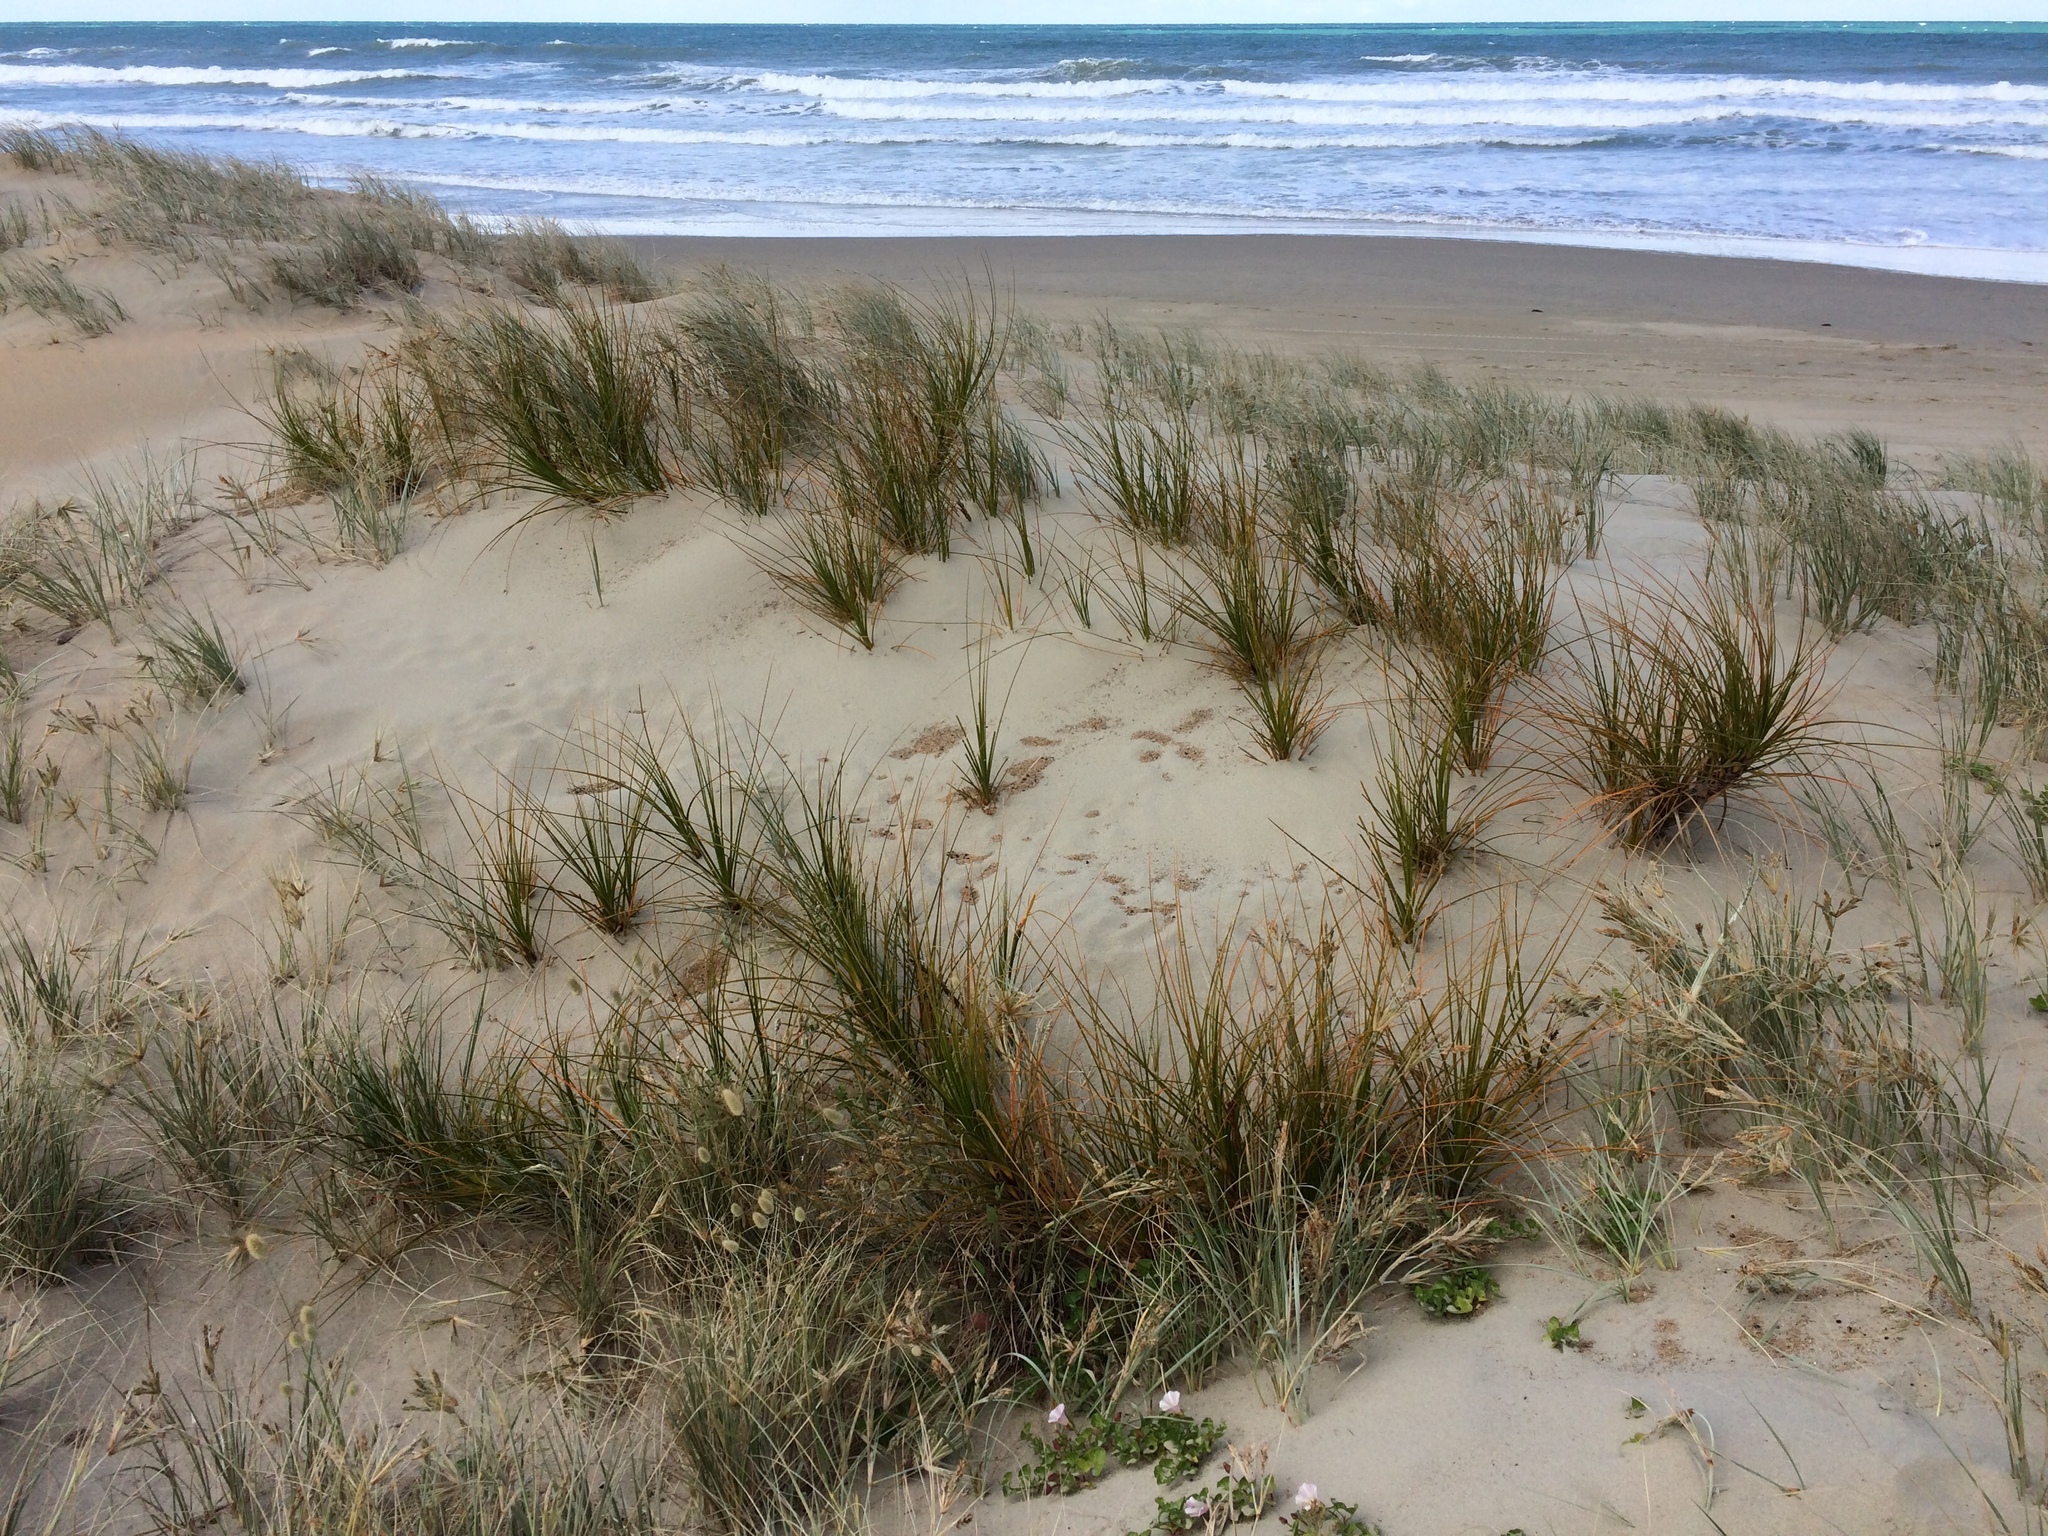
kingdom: Plantae
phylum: Tracheophyta
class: Liliopsida
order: Poales
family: Cyperaceae
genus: Ficinia
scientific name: Ficinia spiralis
